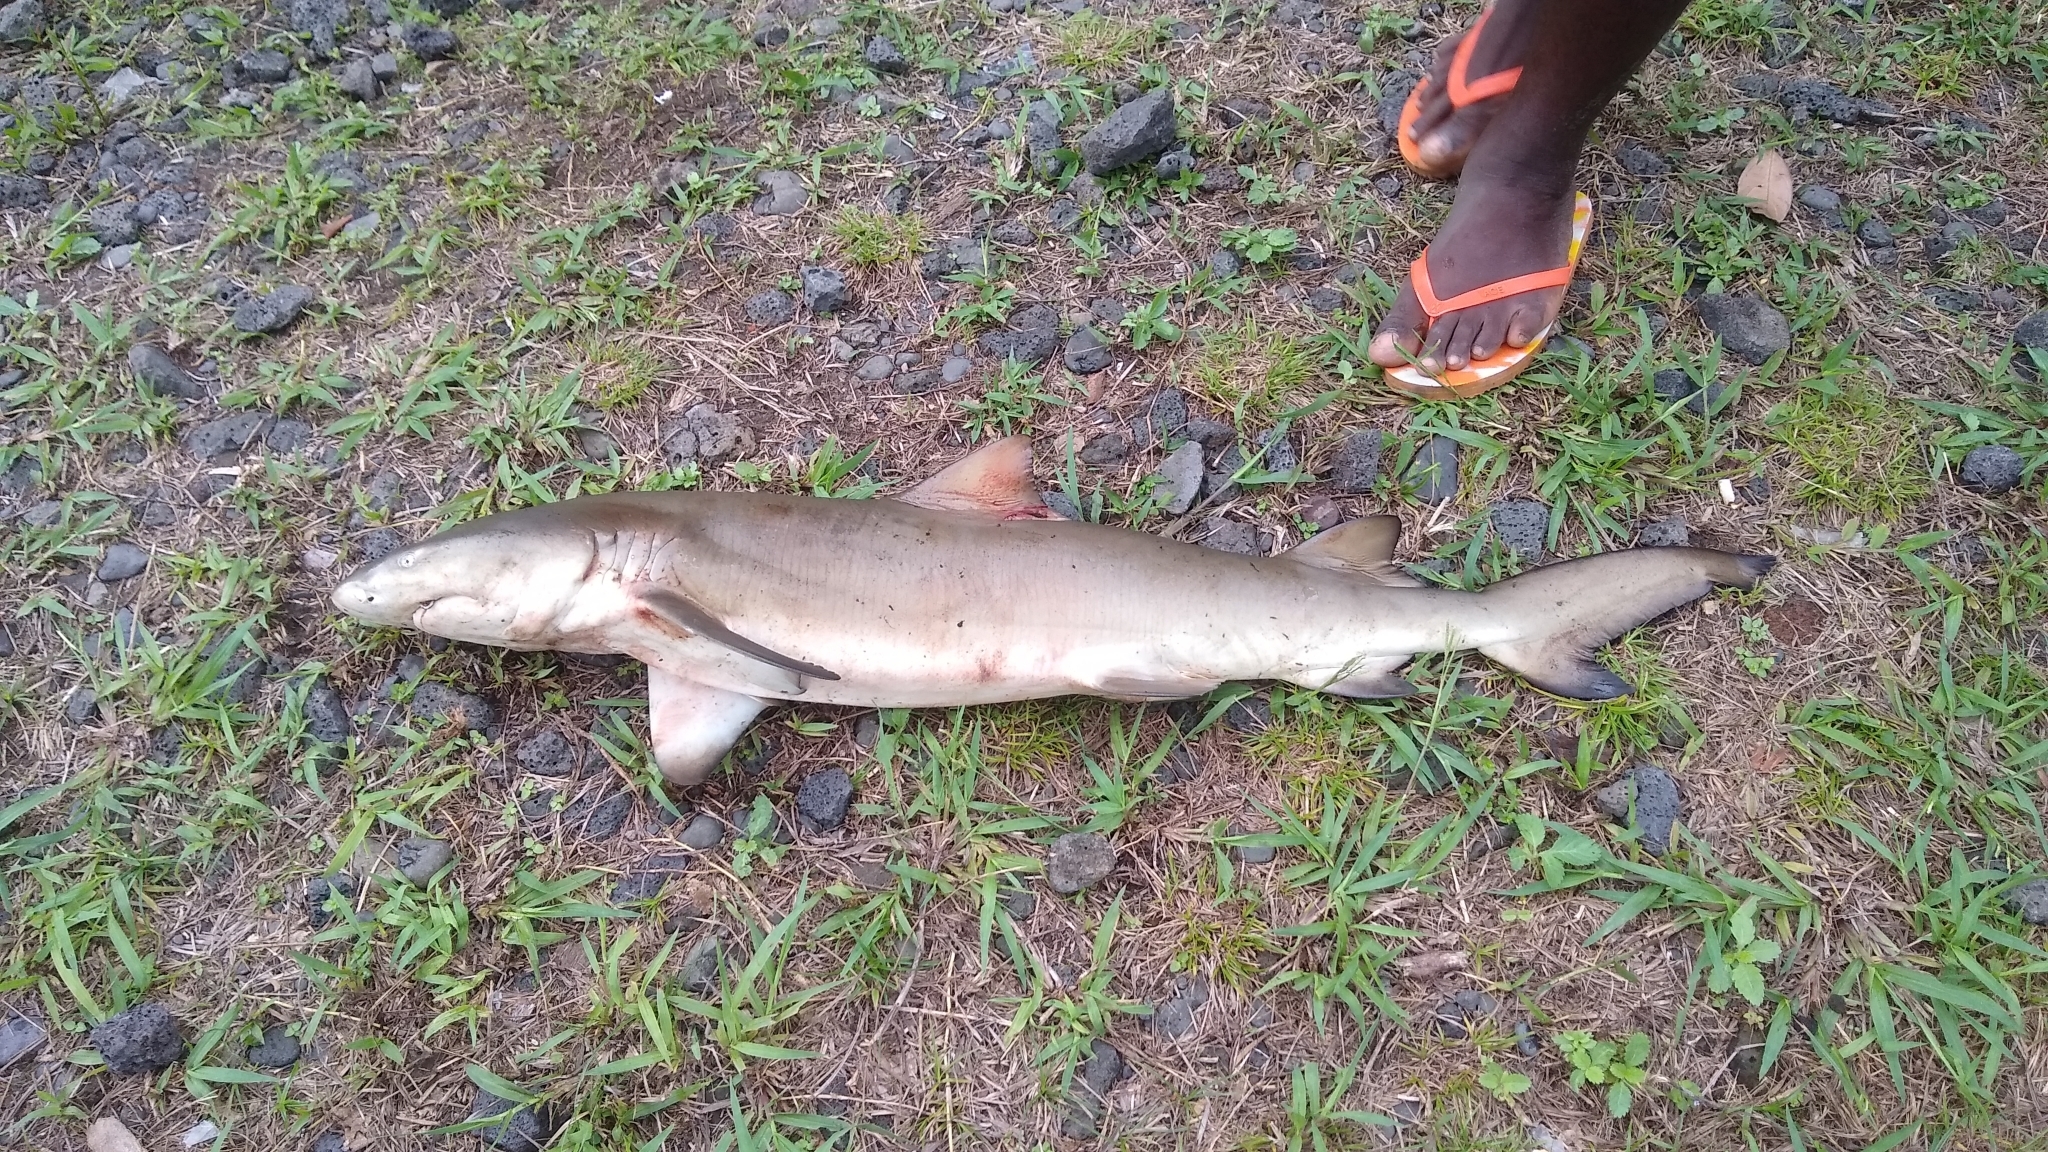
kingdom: Animalia
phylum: Chordata
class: Elasmobranchii
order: Carcharhiniformes
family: Carcharhinidae
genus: Negaprion
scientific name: Negaprion brevirostris
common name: Lemon shark
